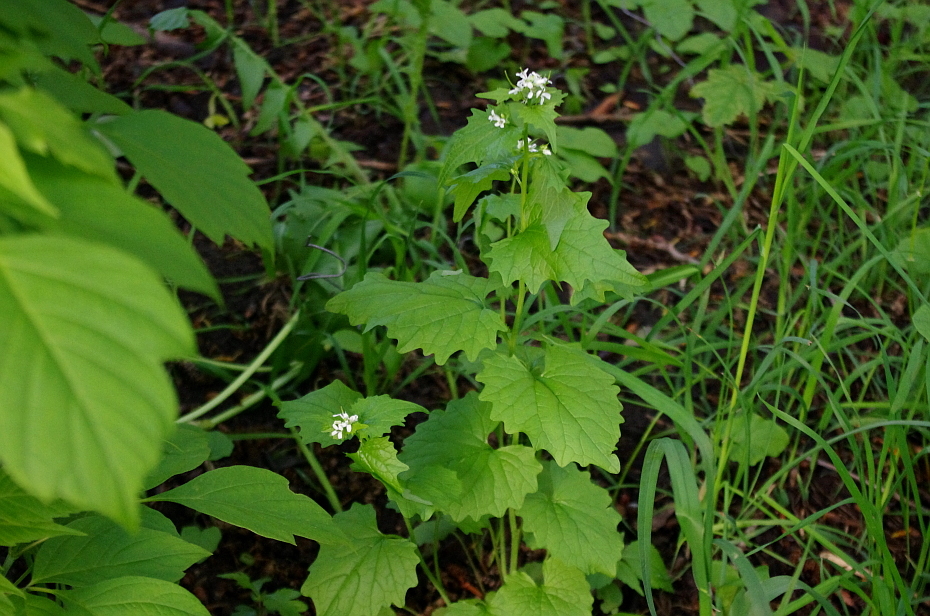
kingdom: Plantae
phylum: Tracheophyta
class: Magnoliopsida
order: Brassicales
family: Brassicaceae
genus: Alliaria
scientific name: Alliaria petiolata
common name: Garlic mustard
